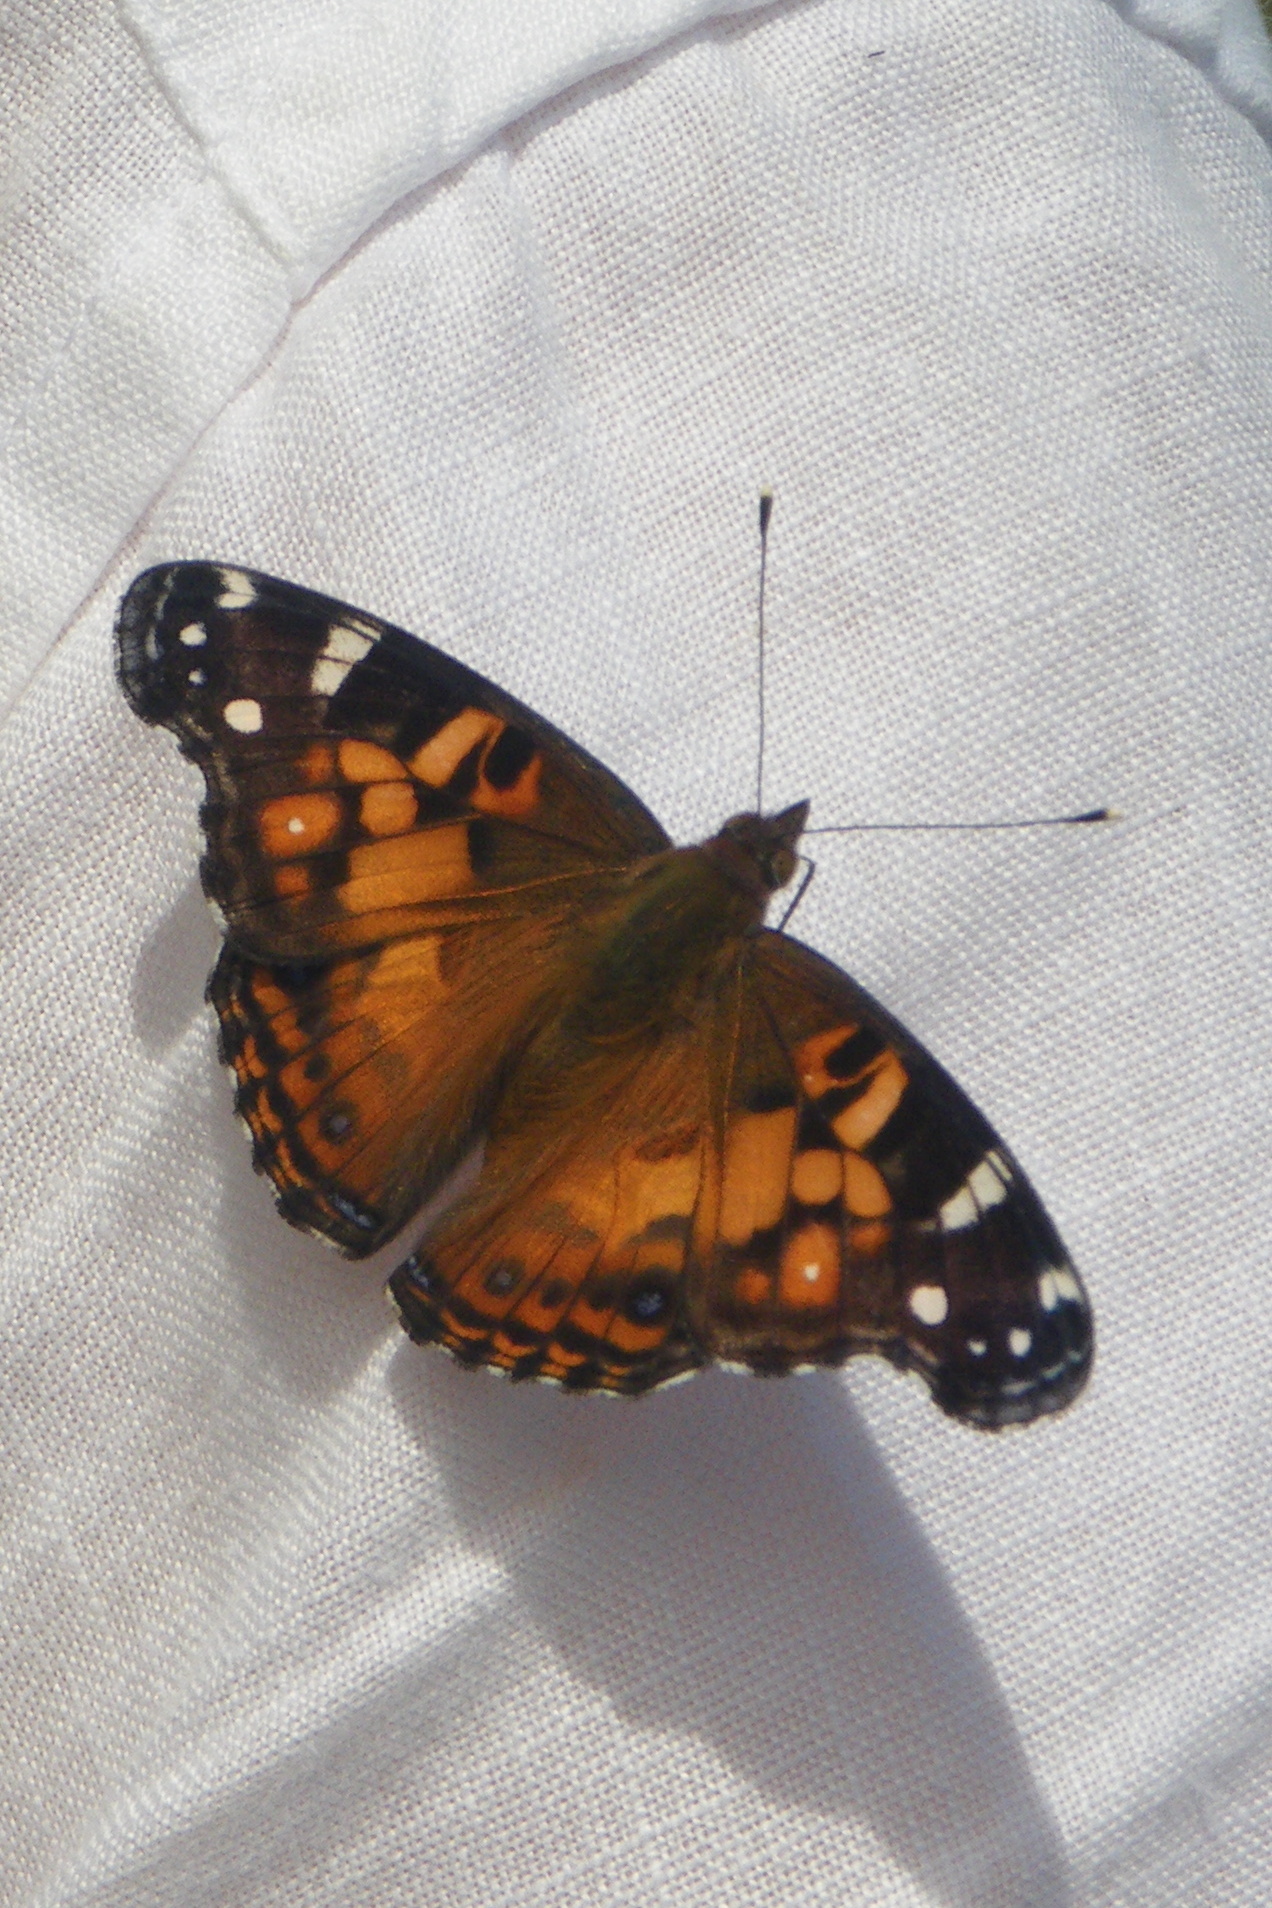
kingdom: Animalia
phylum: Arthropoda
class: Insecta
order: Lepidoptera
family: Nymphalidae
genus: Vanessa
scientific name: Vanessa virginiensis
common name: American lady
